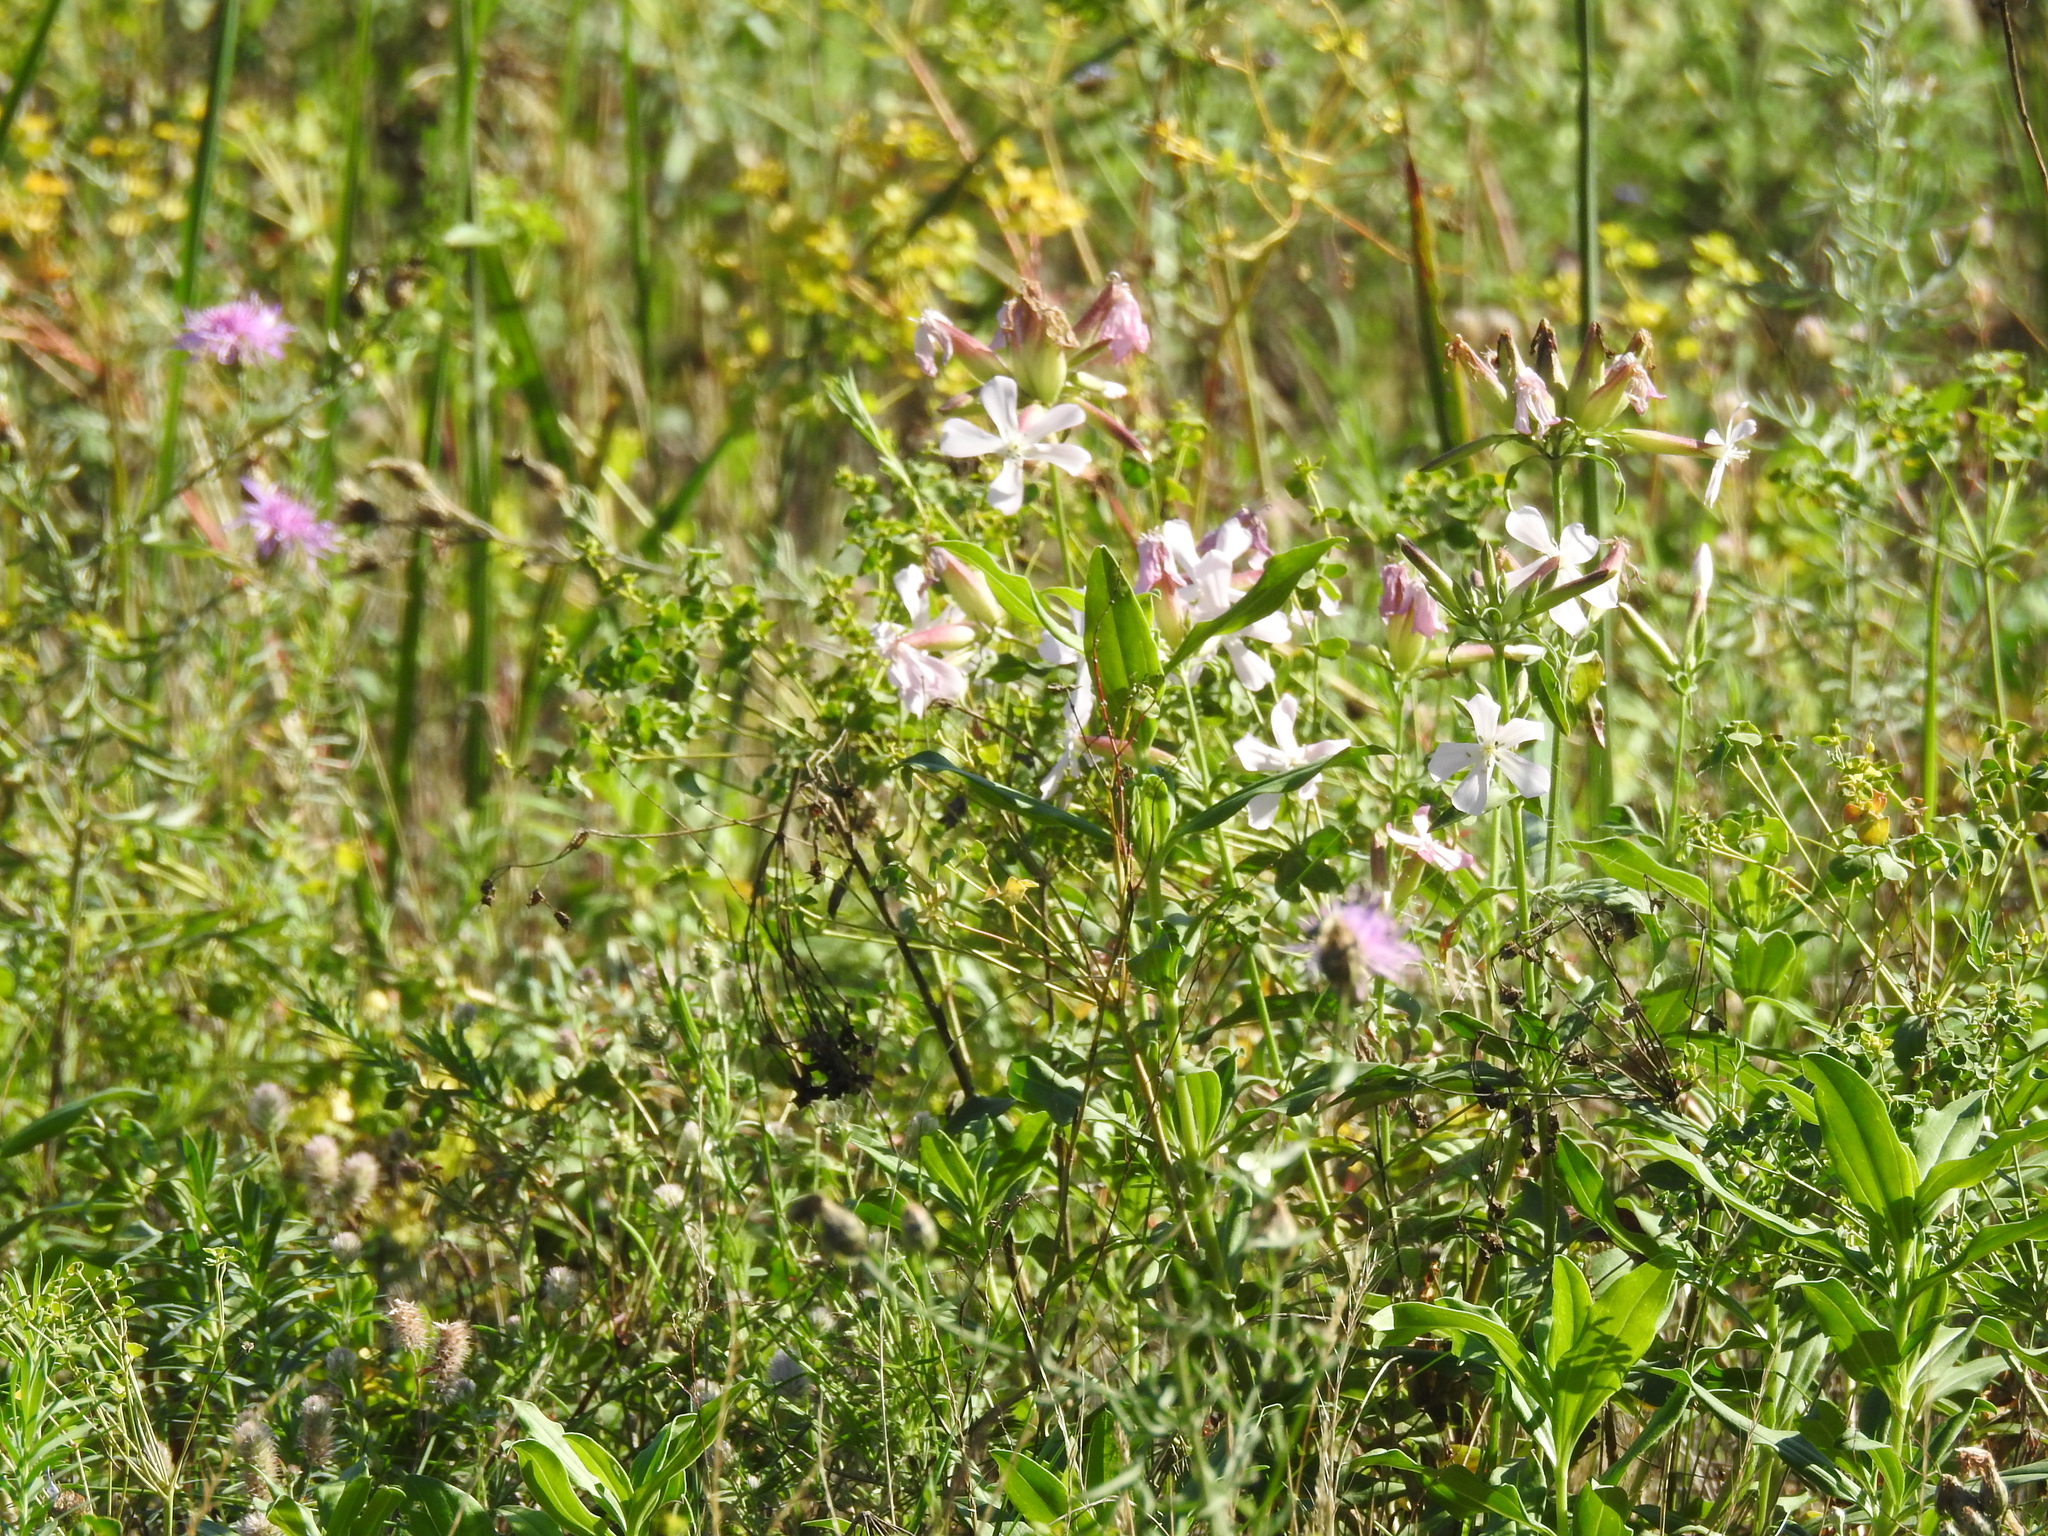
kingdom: Plantae
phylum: Tracheophyta
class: Magnoliopsida
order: Caryophyllales
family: Caryophyllaceae
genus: Saponaria
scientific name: Saponaria officinalis
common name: Soapwort
